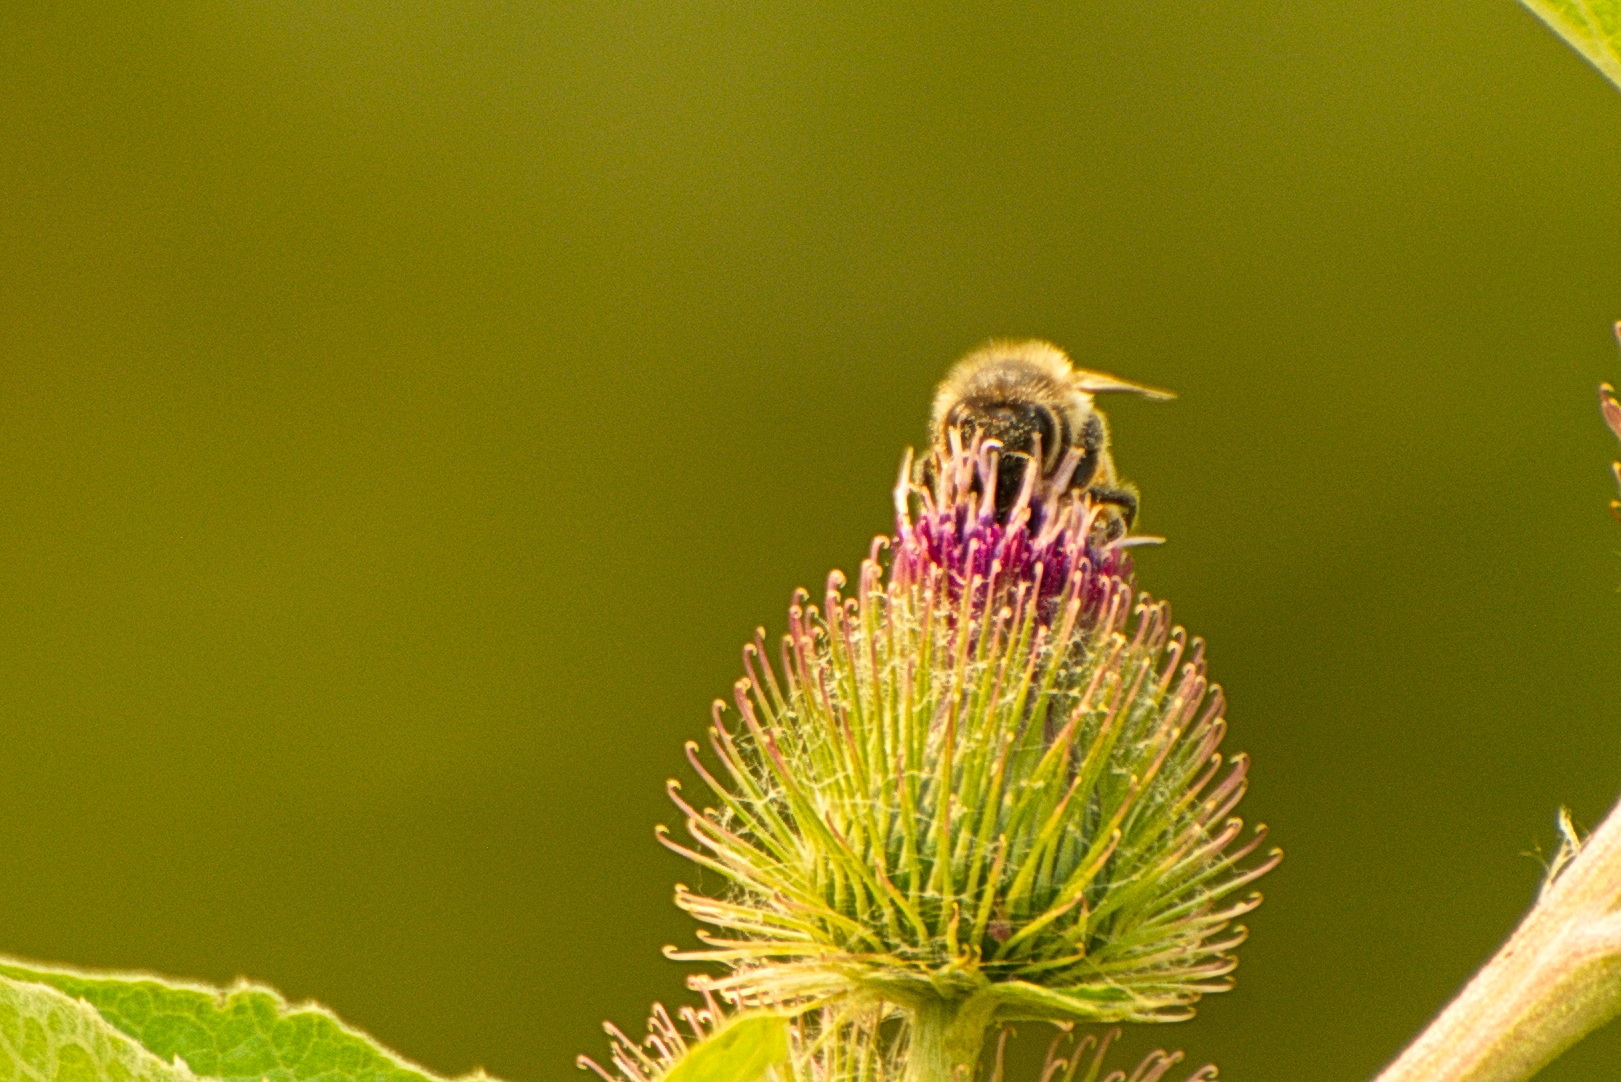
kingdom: Animalia
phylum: Arthropoda
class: Insecta
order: Hymenoptera
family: Apidae
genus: Apis
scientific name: Apis mellifera
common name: Honey bee
